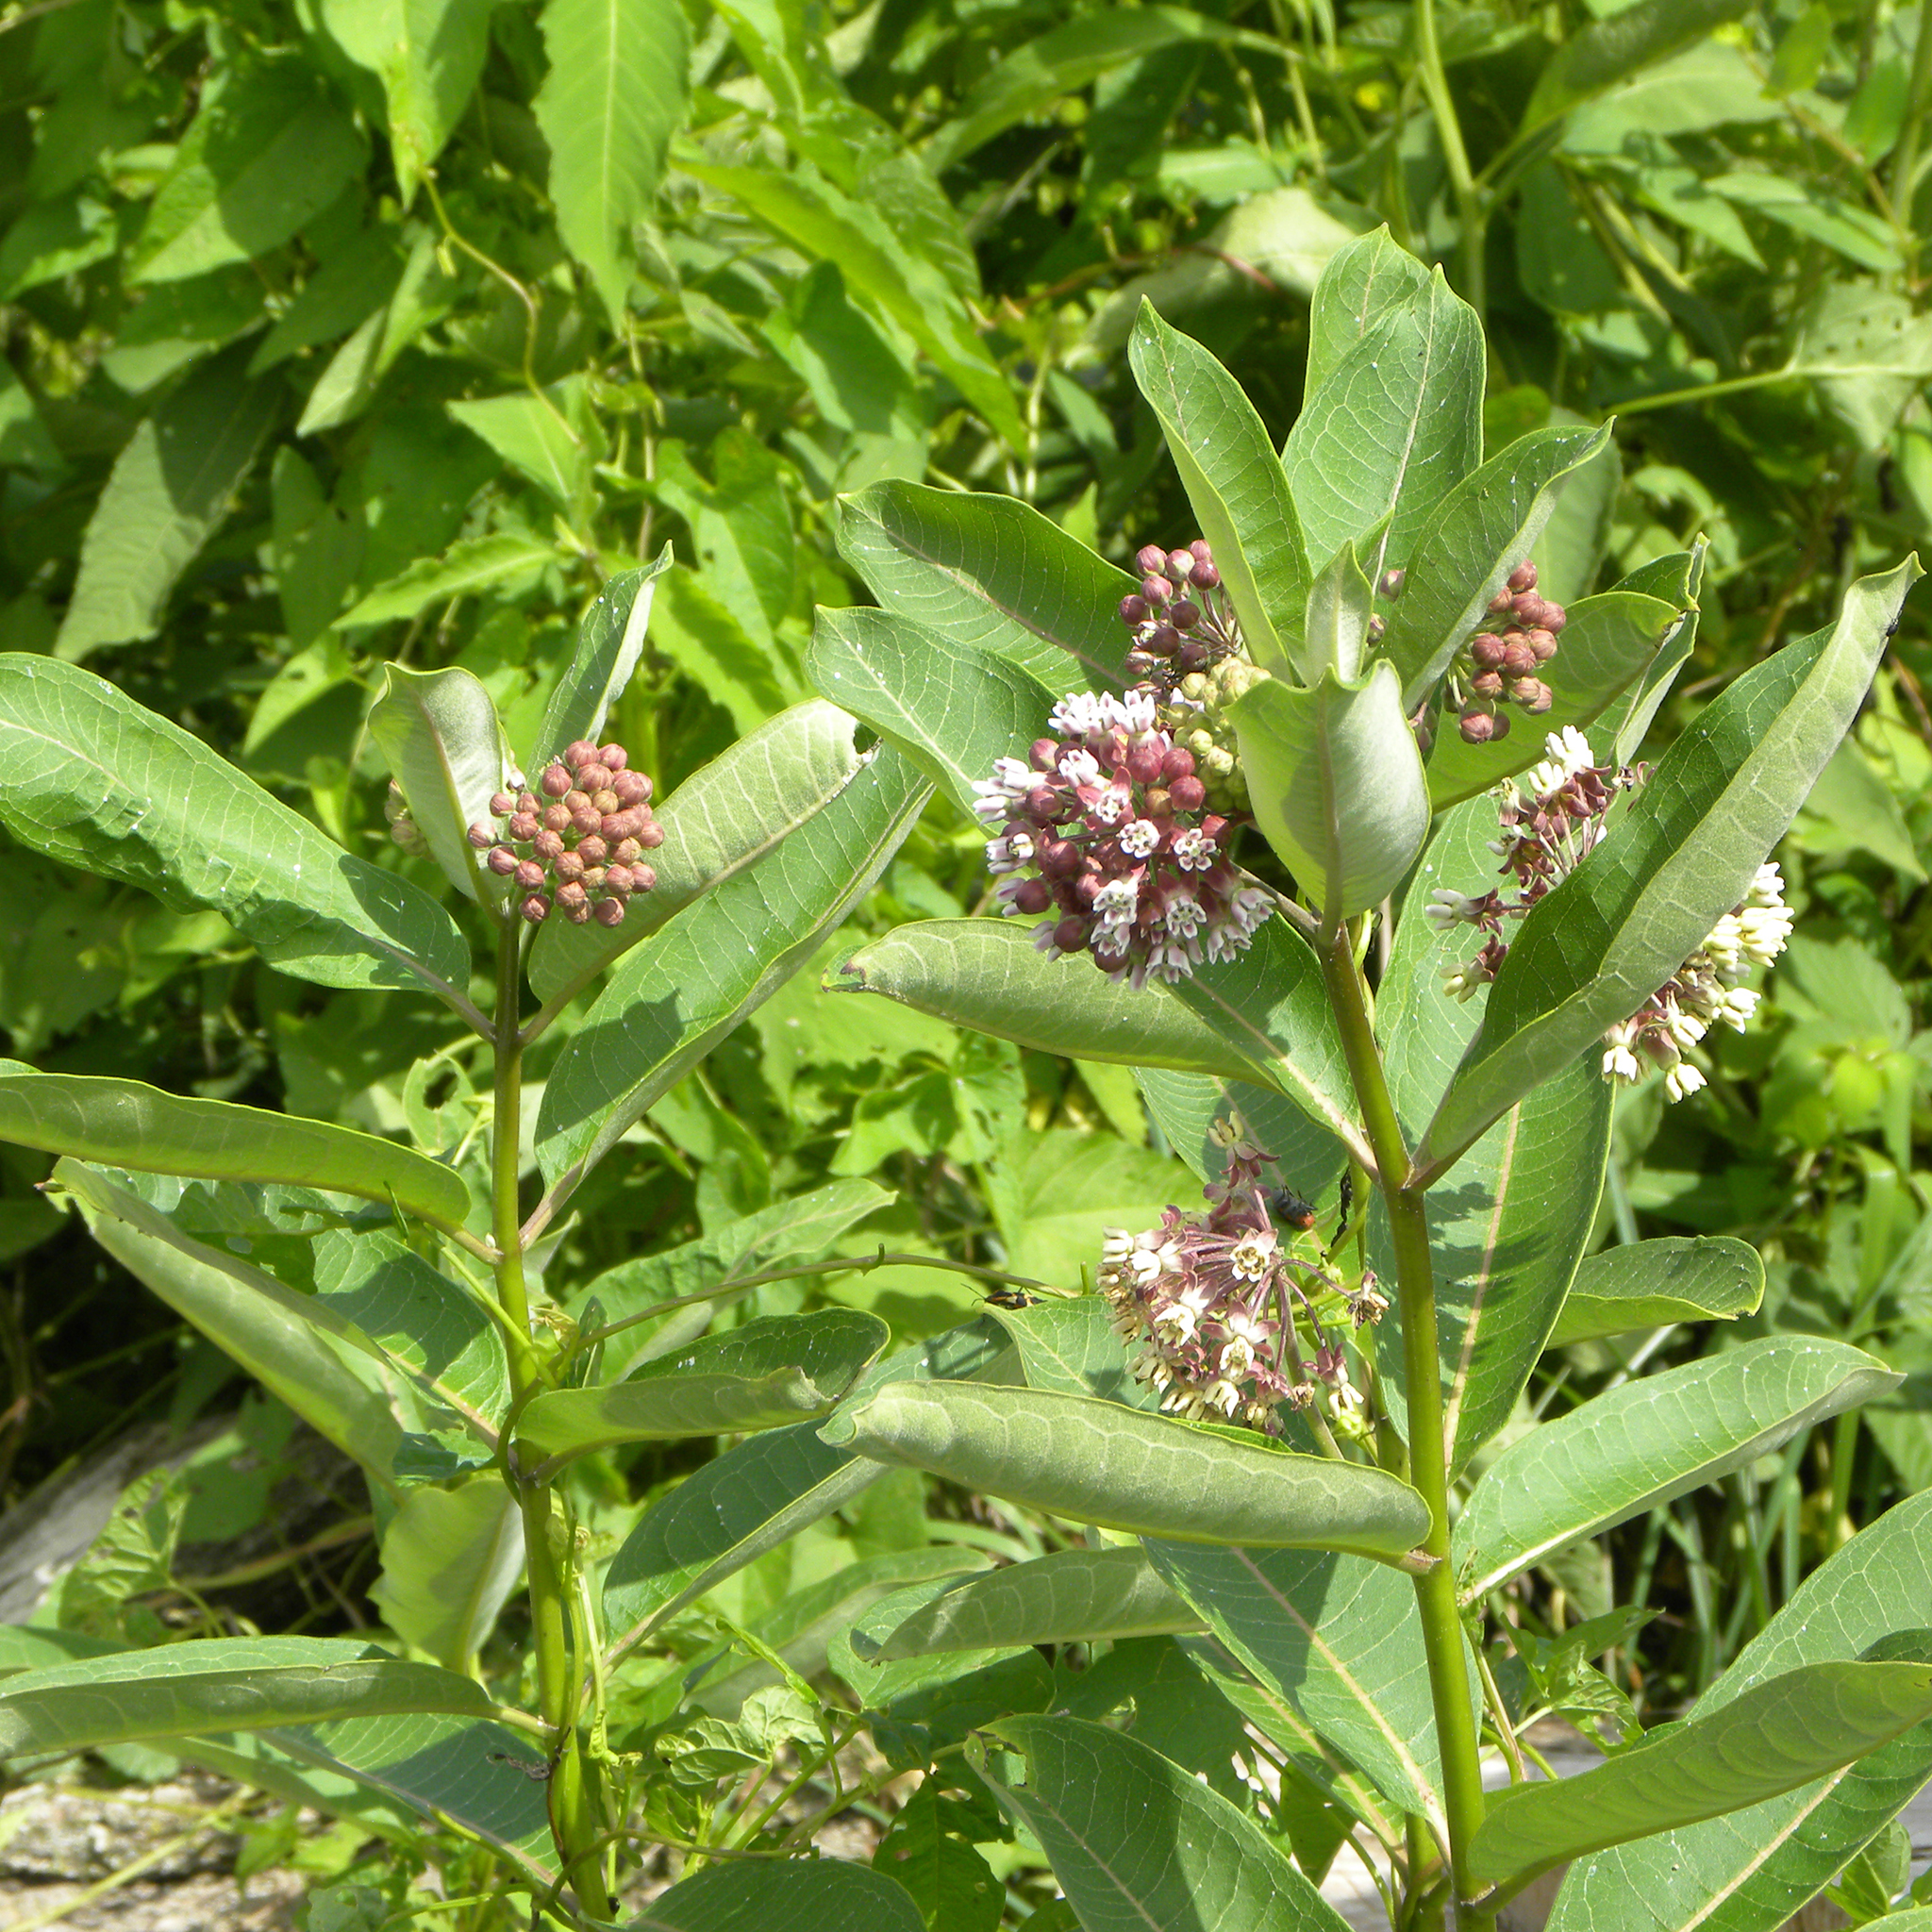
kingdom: Plantae
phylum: Tracheophyta
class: Magnoliopsida
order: Gentianales
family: Apocynaceae
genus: Asclepias
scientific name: Asclepias syriaca
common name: Common milkweed
